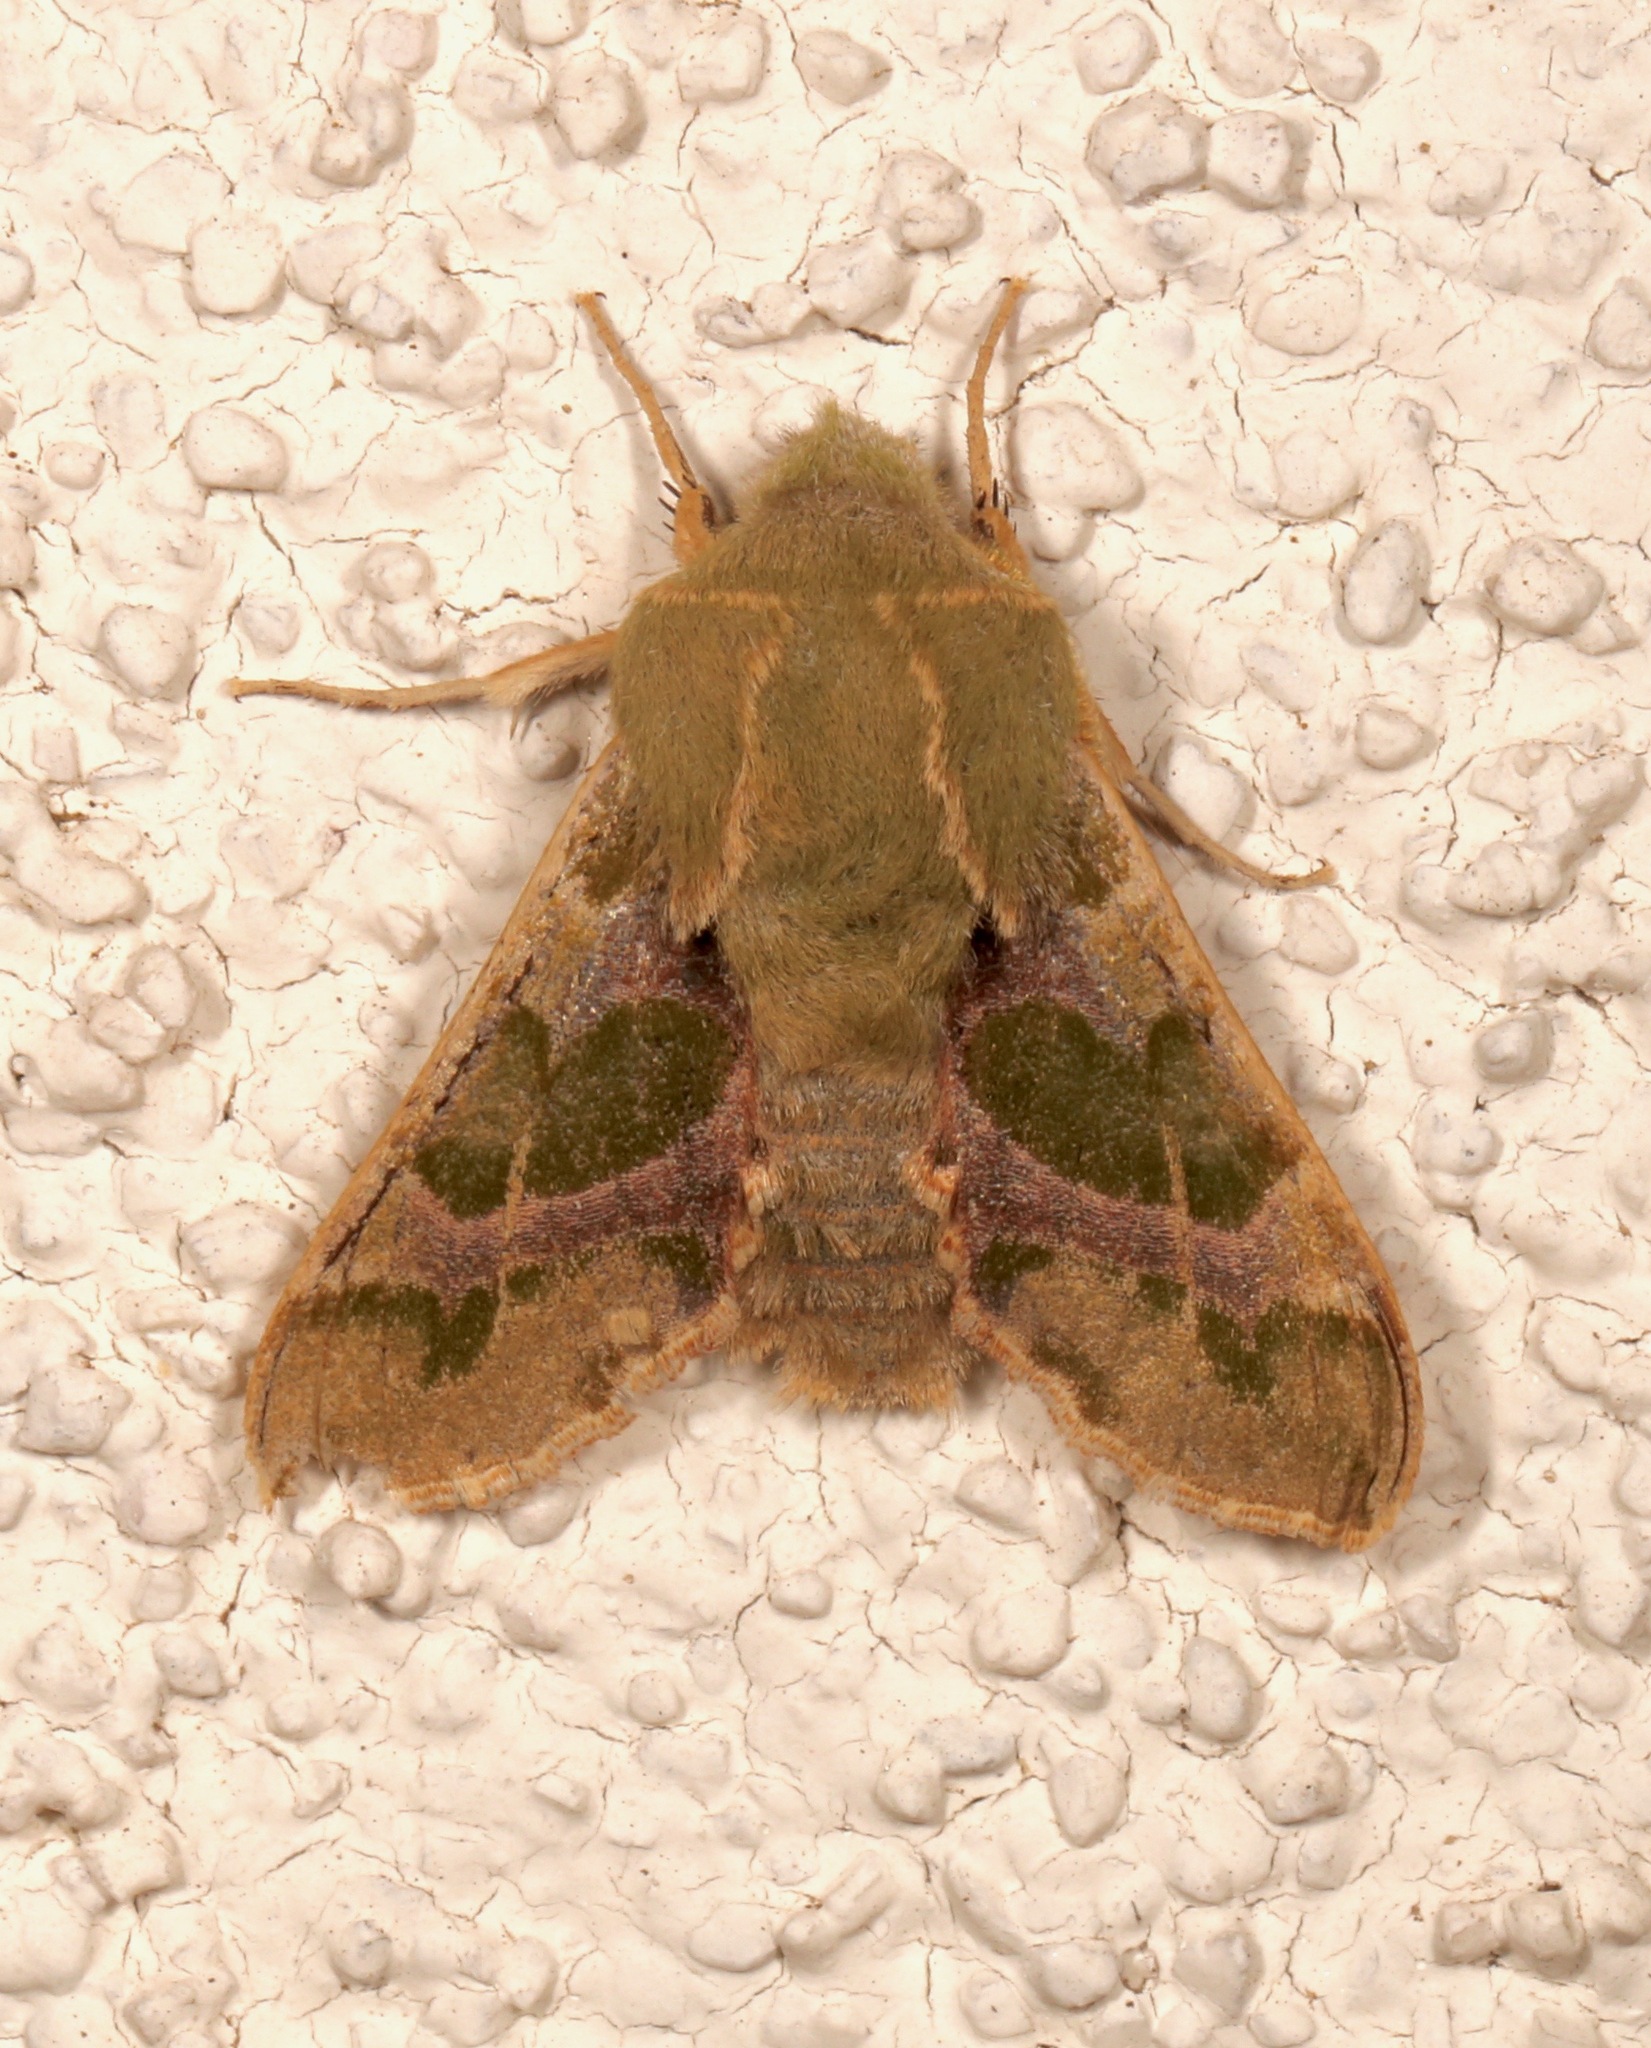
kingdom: Animalia
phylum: Arthropoda
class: Insecta
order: Lepidoptera
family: Sphingidae
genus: Proserpinus
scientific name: Proserpinus lucidus
